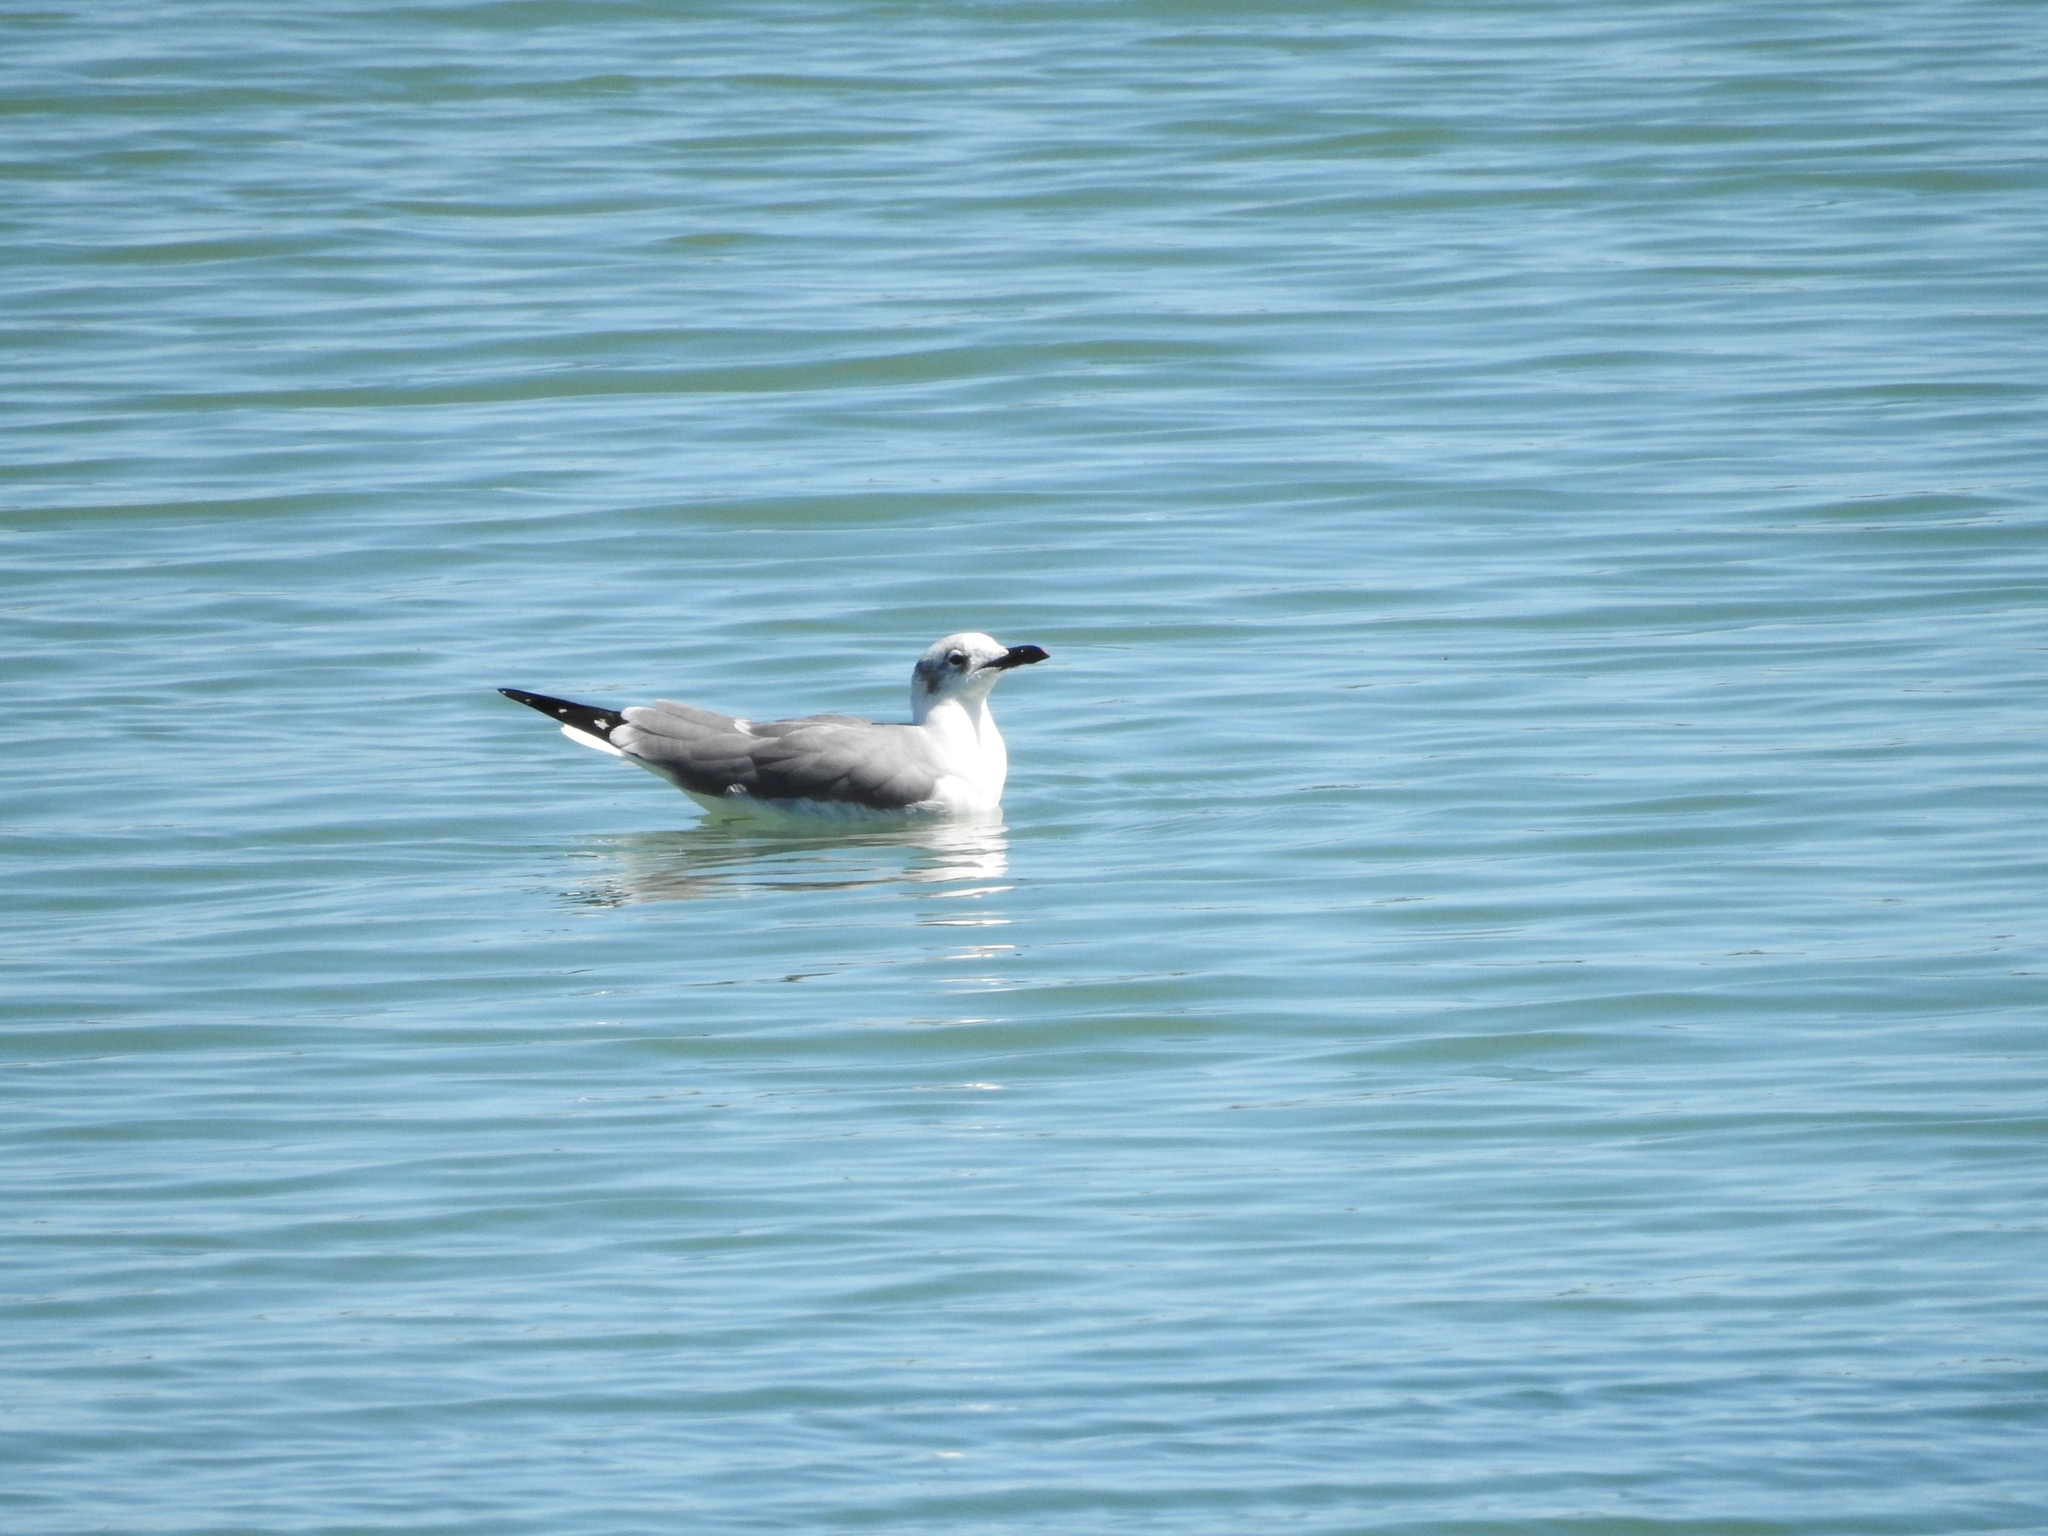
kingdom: Animalia
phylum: Chordata
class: Aves
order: Charadriiformes
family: Laridae
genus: Leucophaeus
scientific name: Leucophaeus atricilla
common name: Laughing gull
